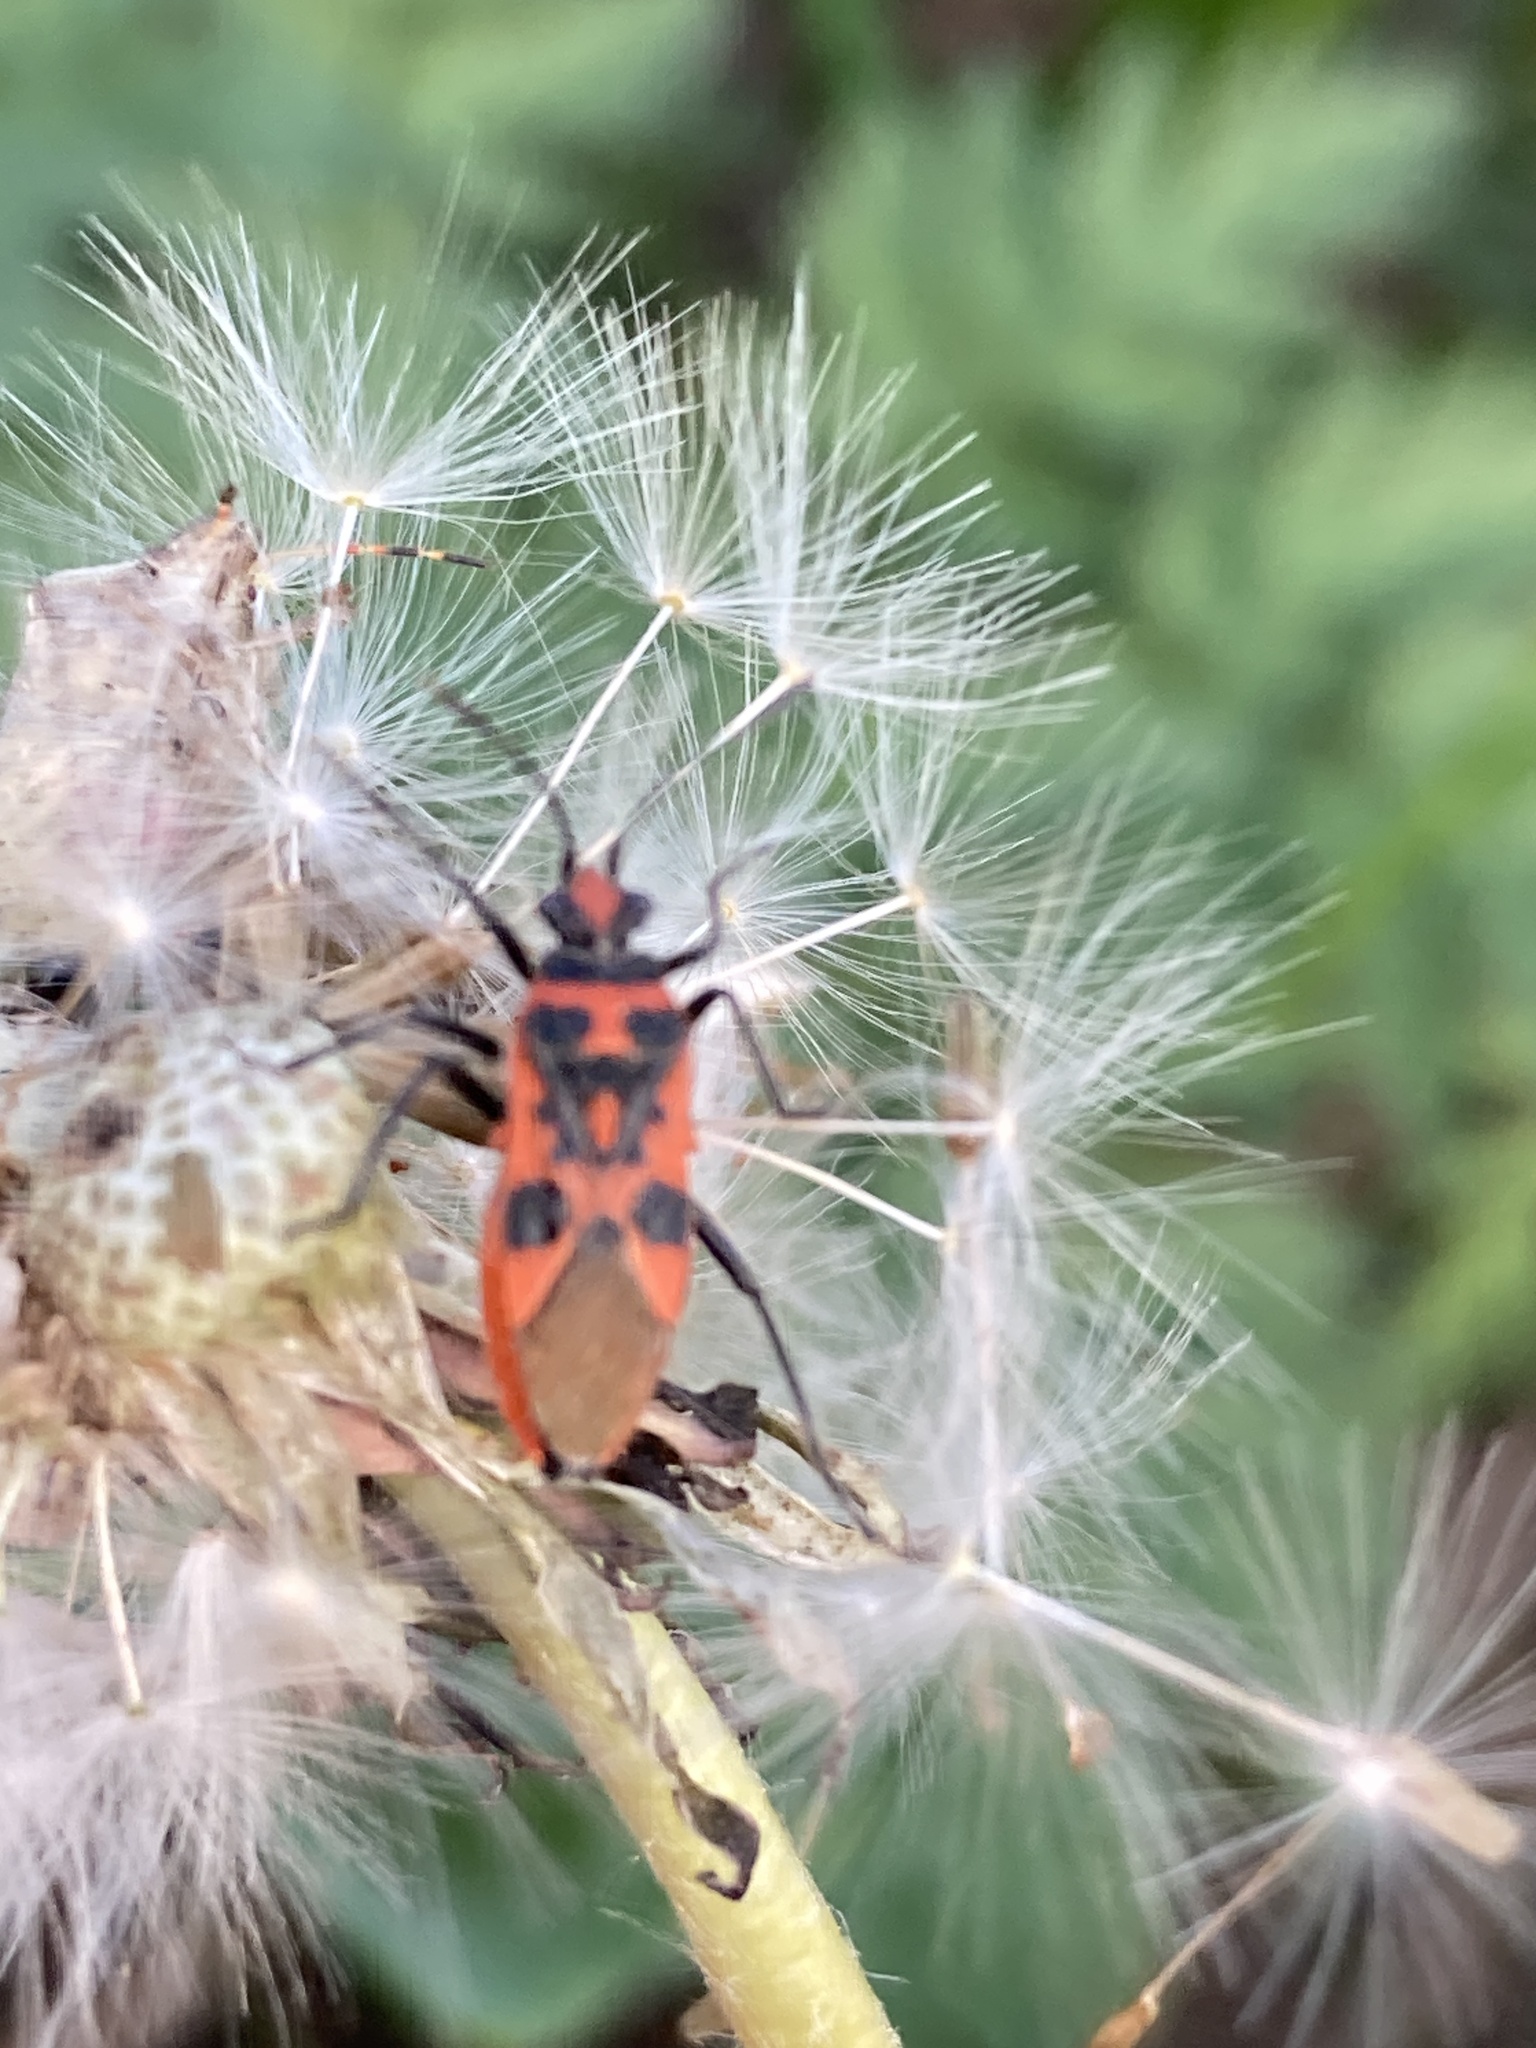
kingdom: Animalia
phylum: Arthropoda
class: Insecta
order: Hemiptera
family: Rhopalidae
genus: Corizus
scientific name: Corizus hyoscyami
